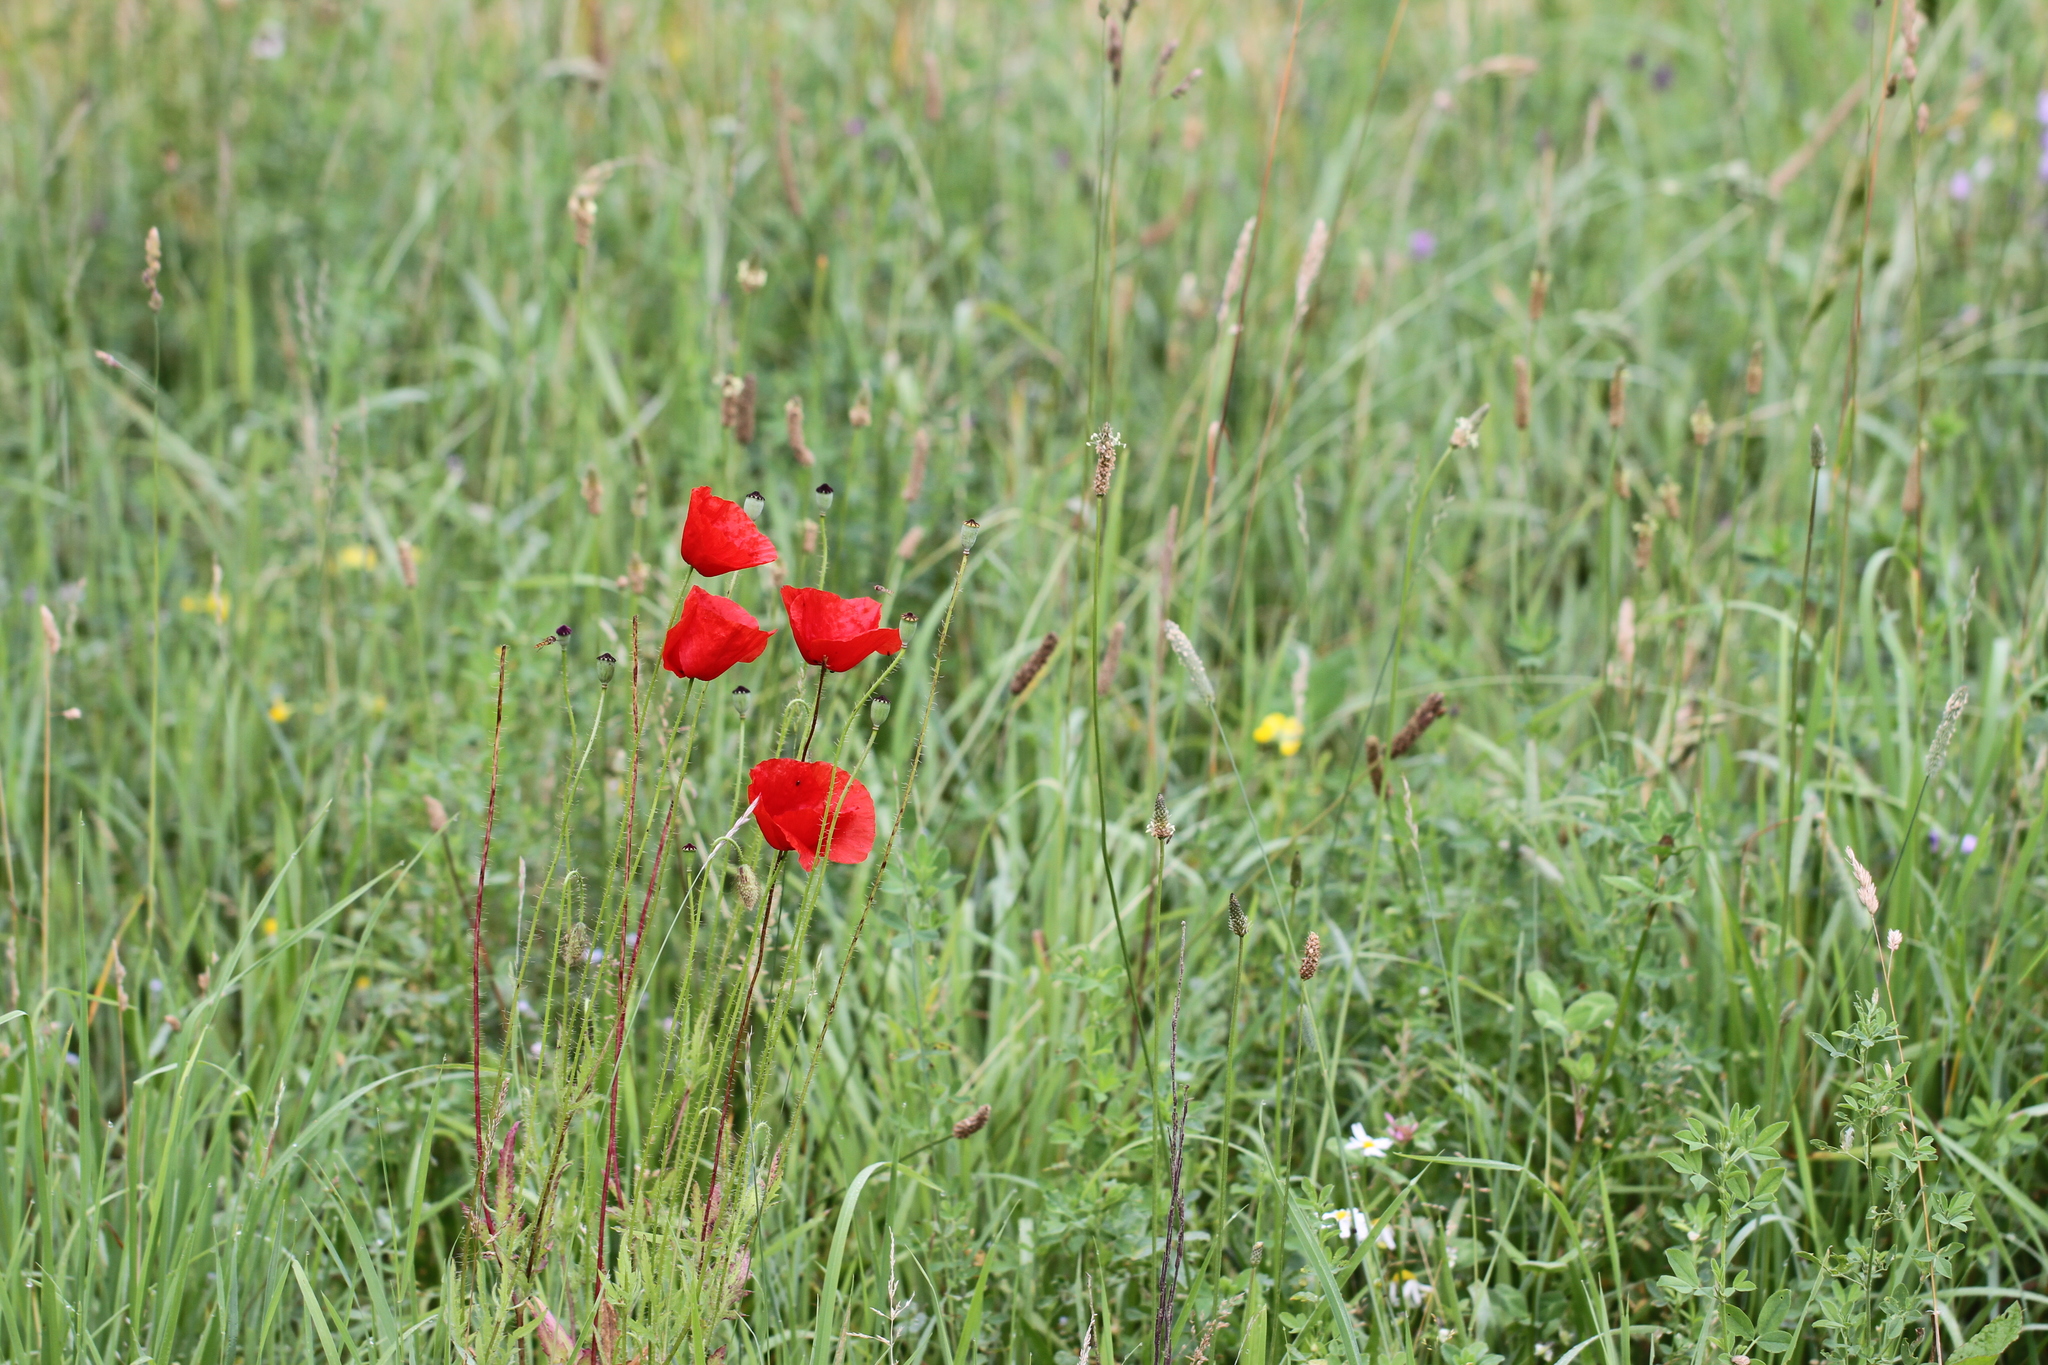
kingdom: Plantae
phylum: Tracheophyta
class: Magnoliopsida
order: Ranunculales
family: Papaveraceae
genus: Papaver
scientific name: Papaver rhoeas
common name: Corn poppy
